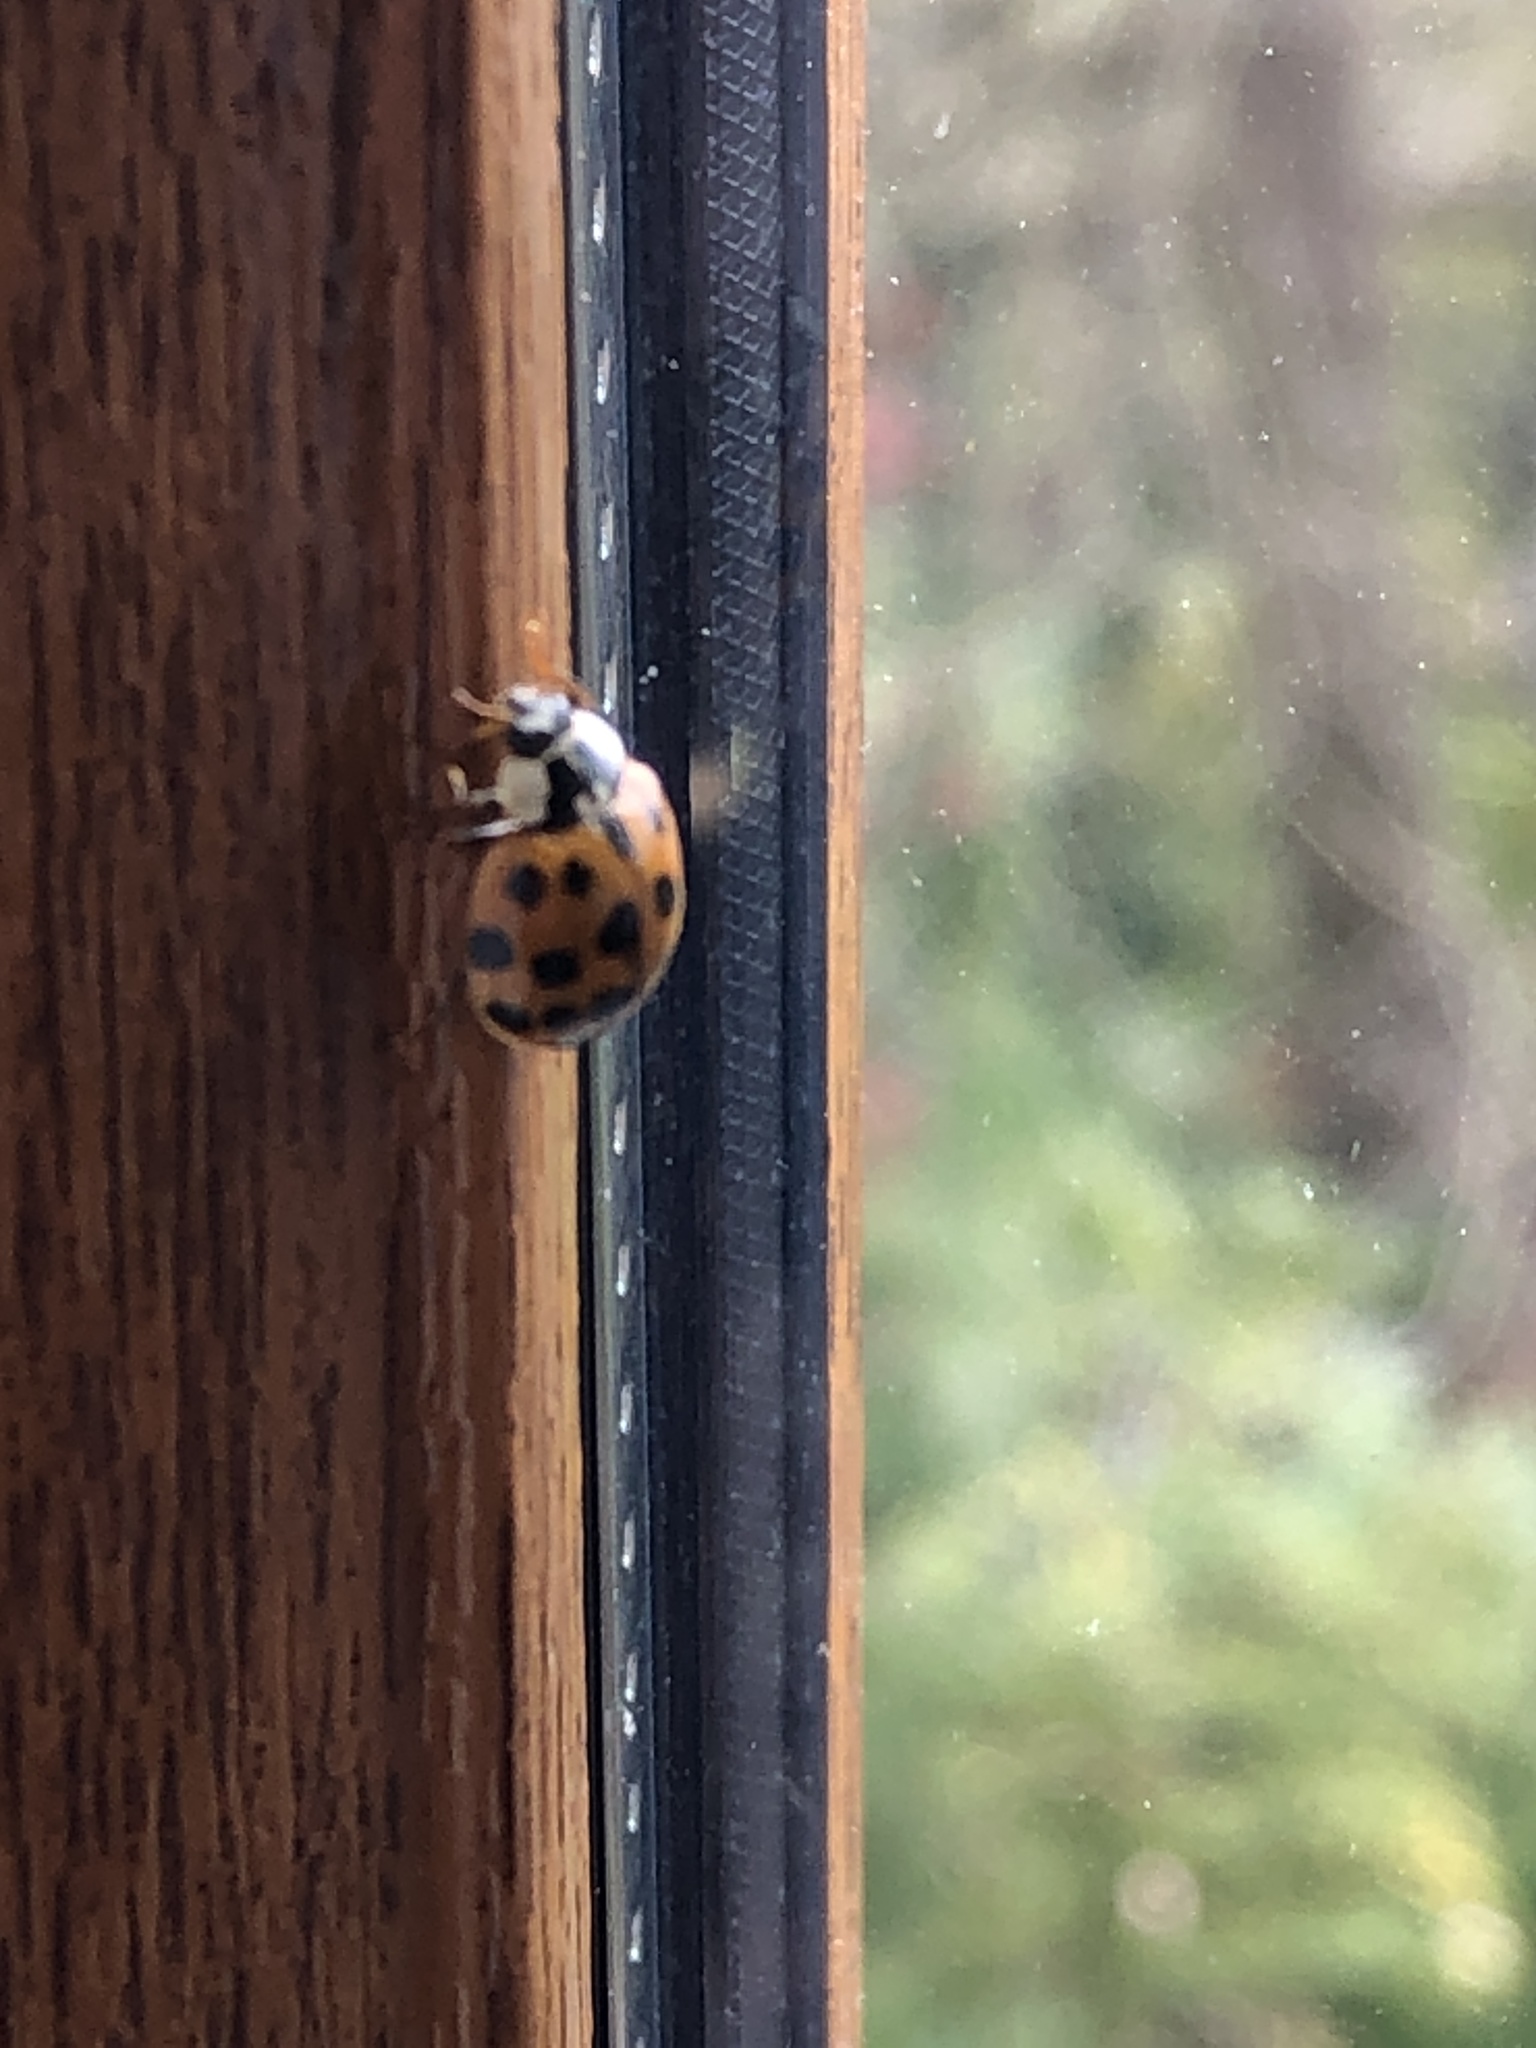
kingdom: Animalia
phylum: Arthropoda
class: Insecta
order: Coleoptera
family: Coccinellidae
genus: Harmonia
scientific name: Harmonia axyridis
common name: Harlequin ladybird
